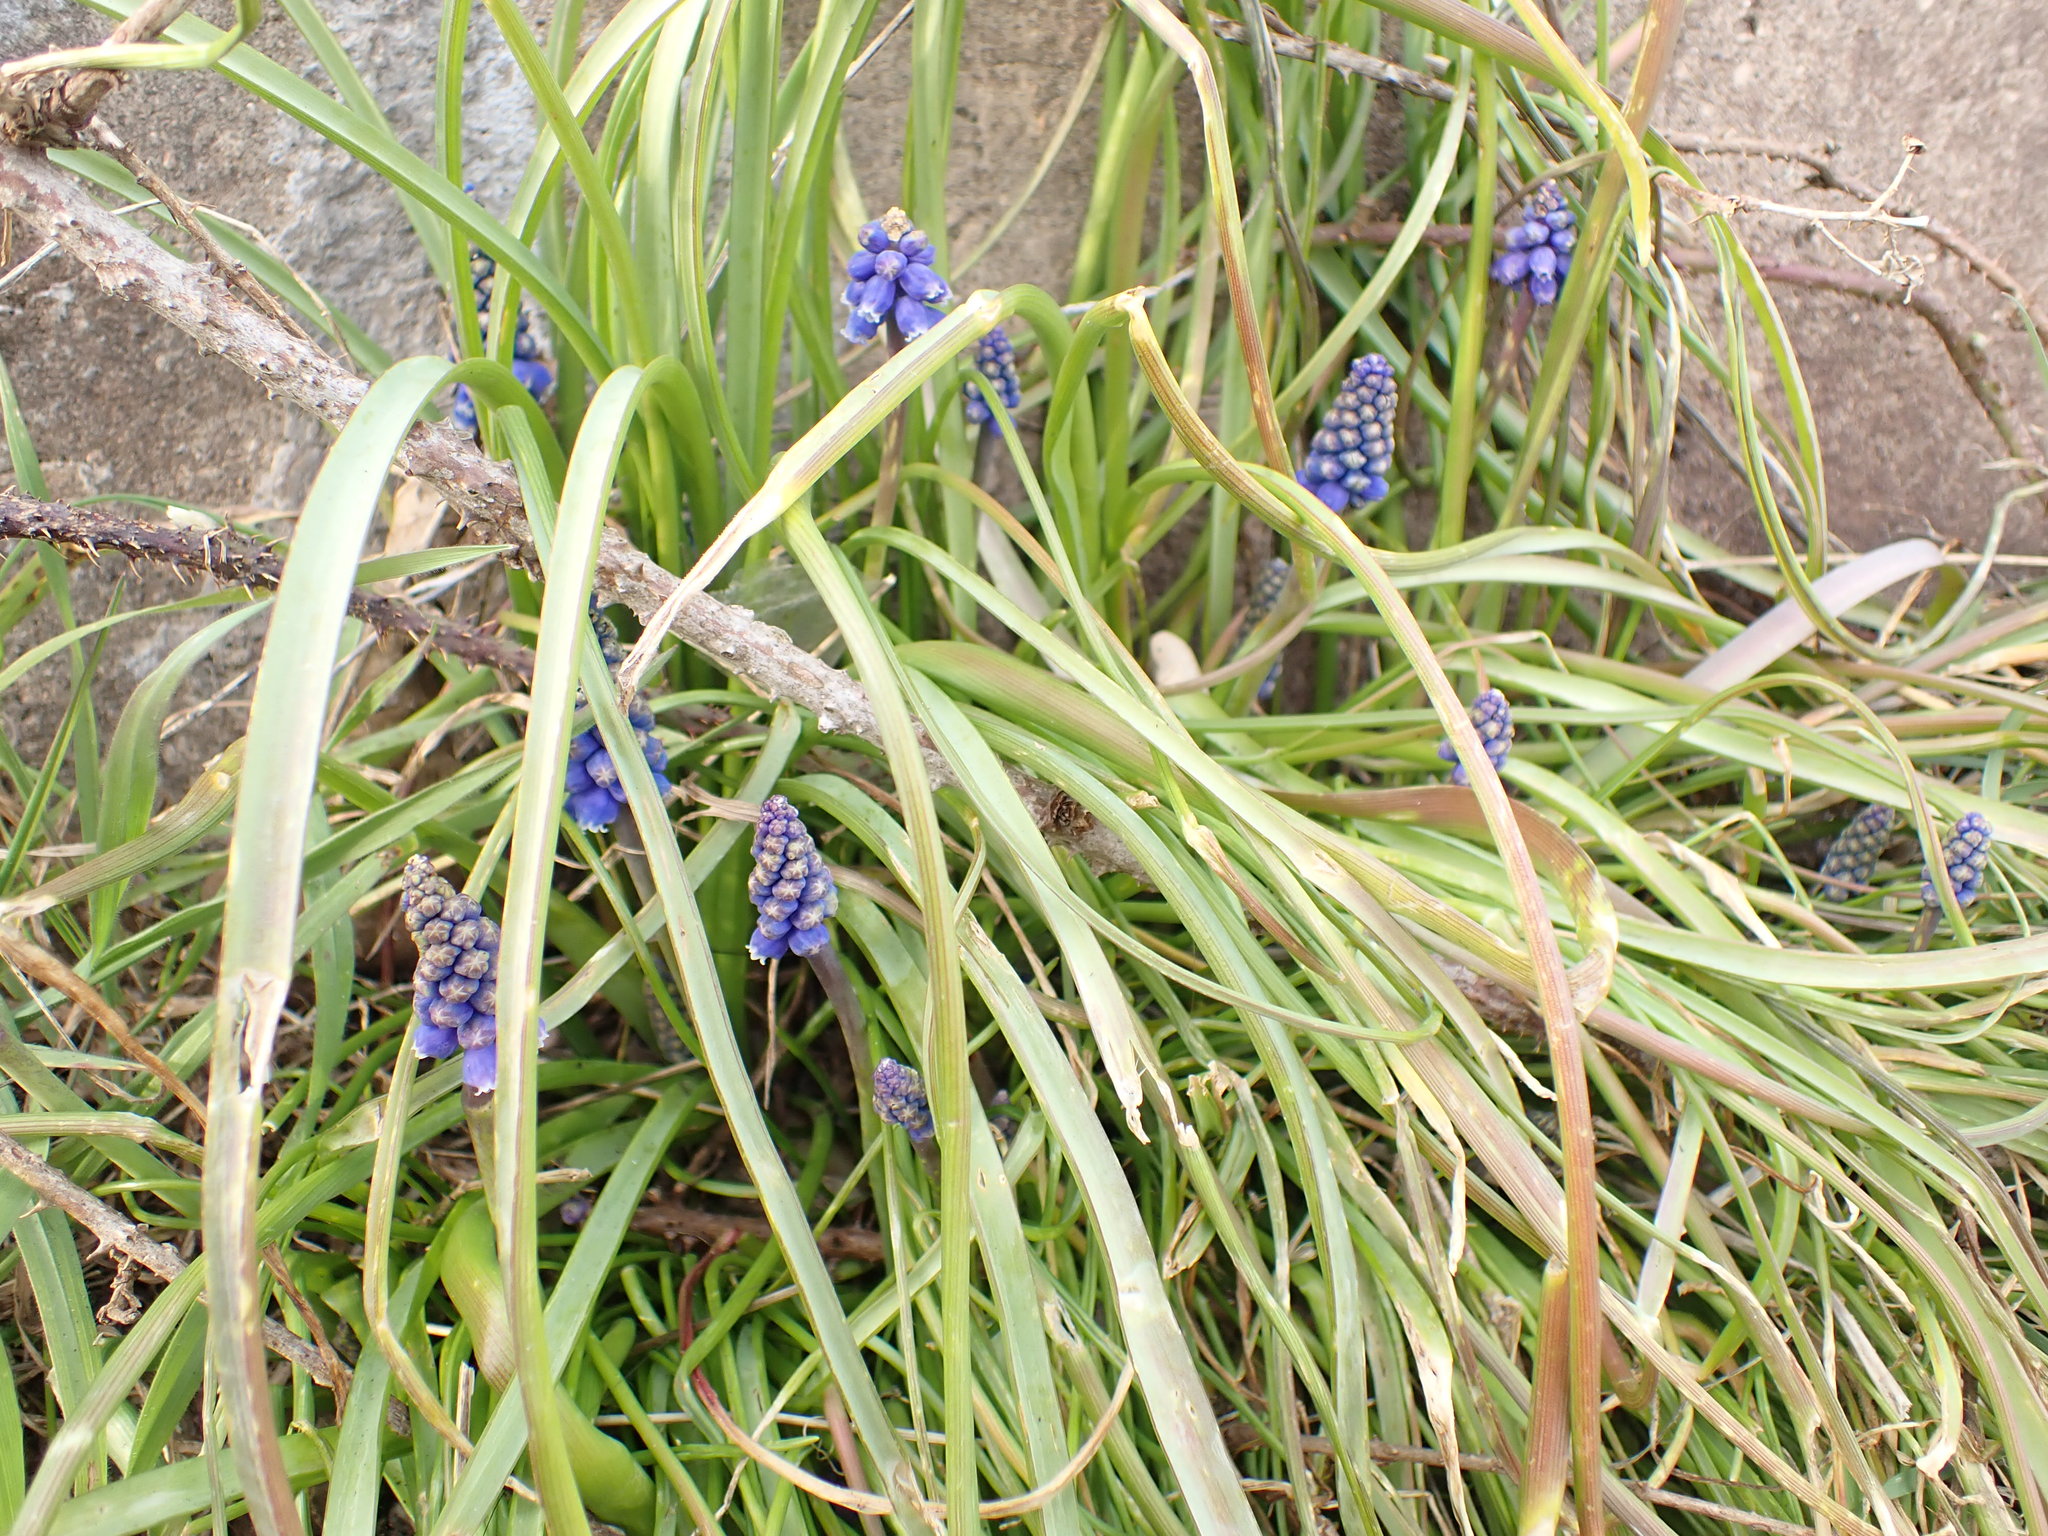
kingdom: Plantae
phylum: Tracheophyta
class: Liliopsida
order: Asparagales
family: Asparagaceae
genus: Muscari
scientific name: Muscari armeniacum
